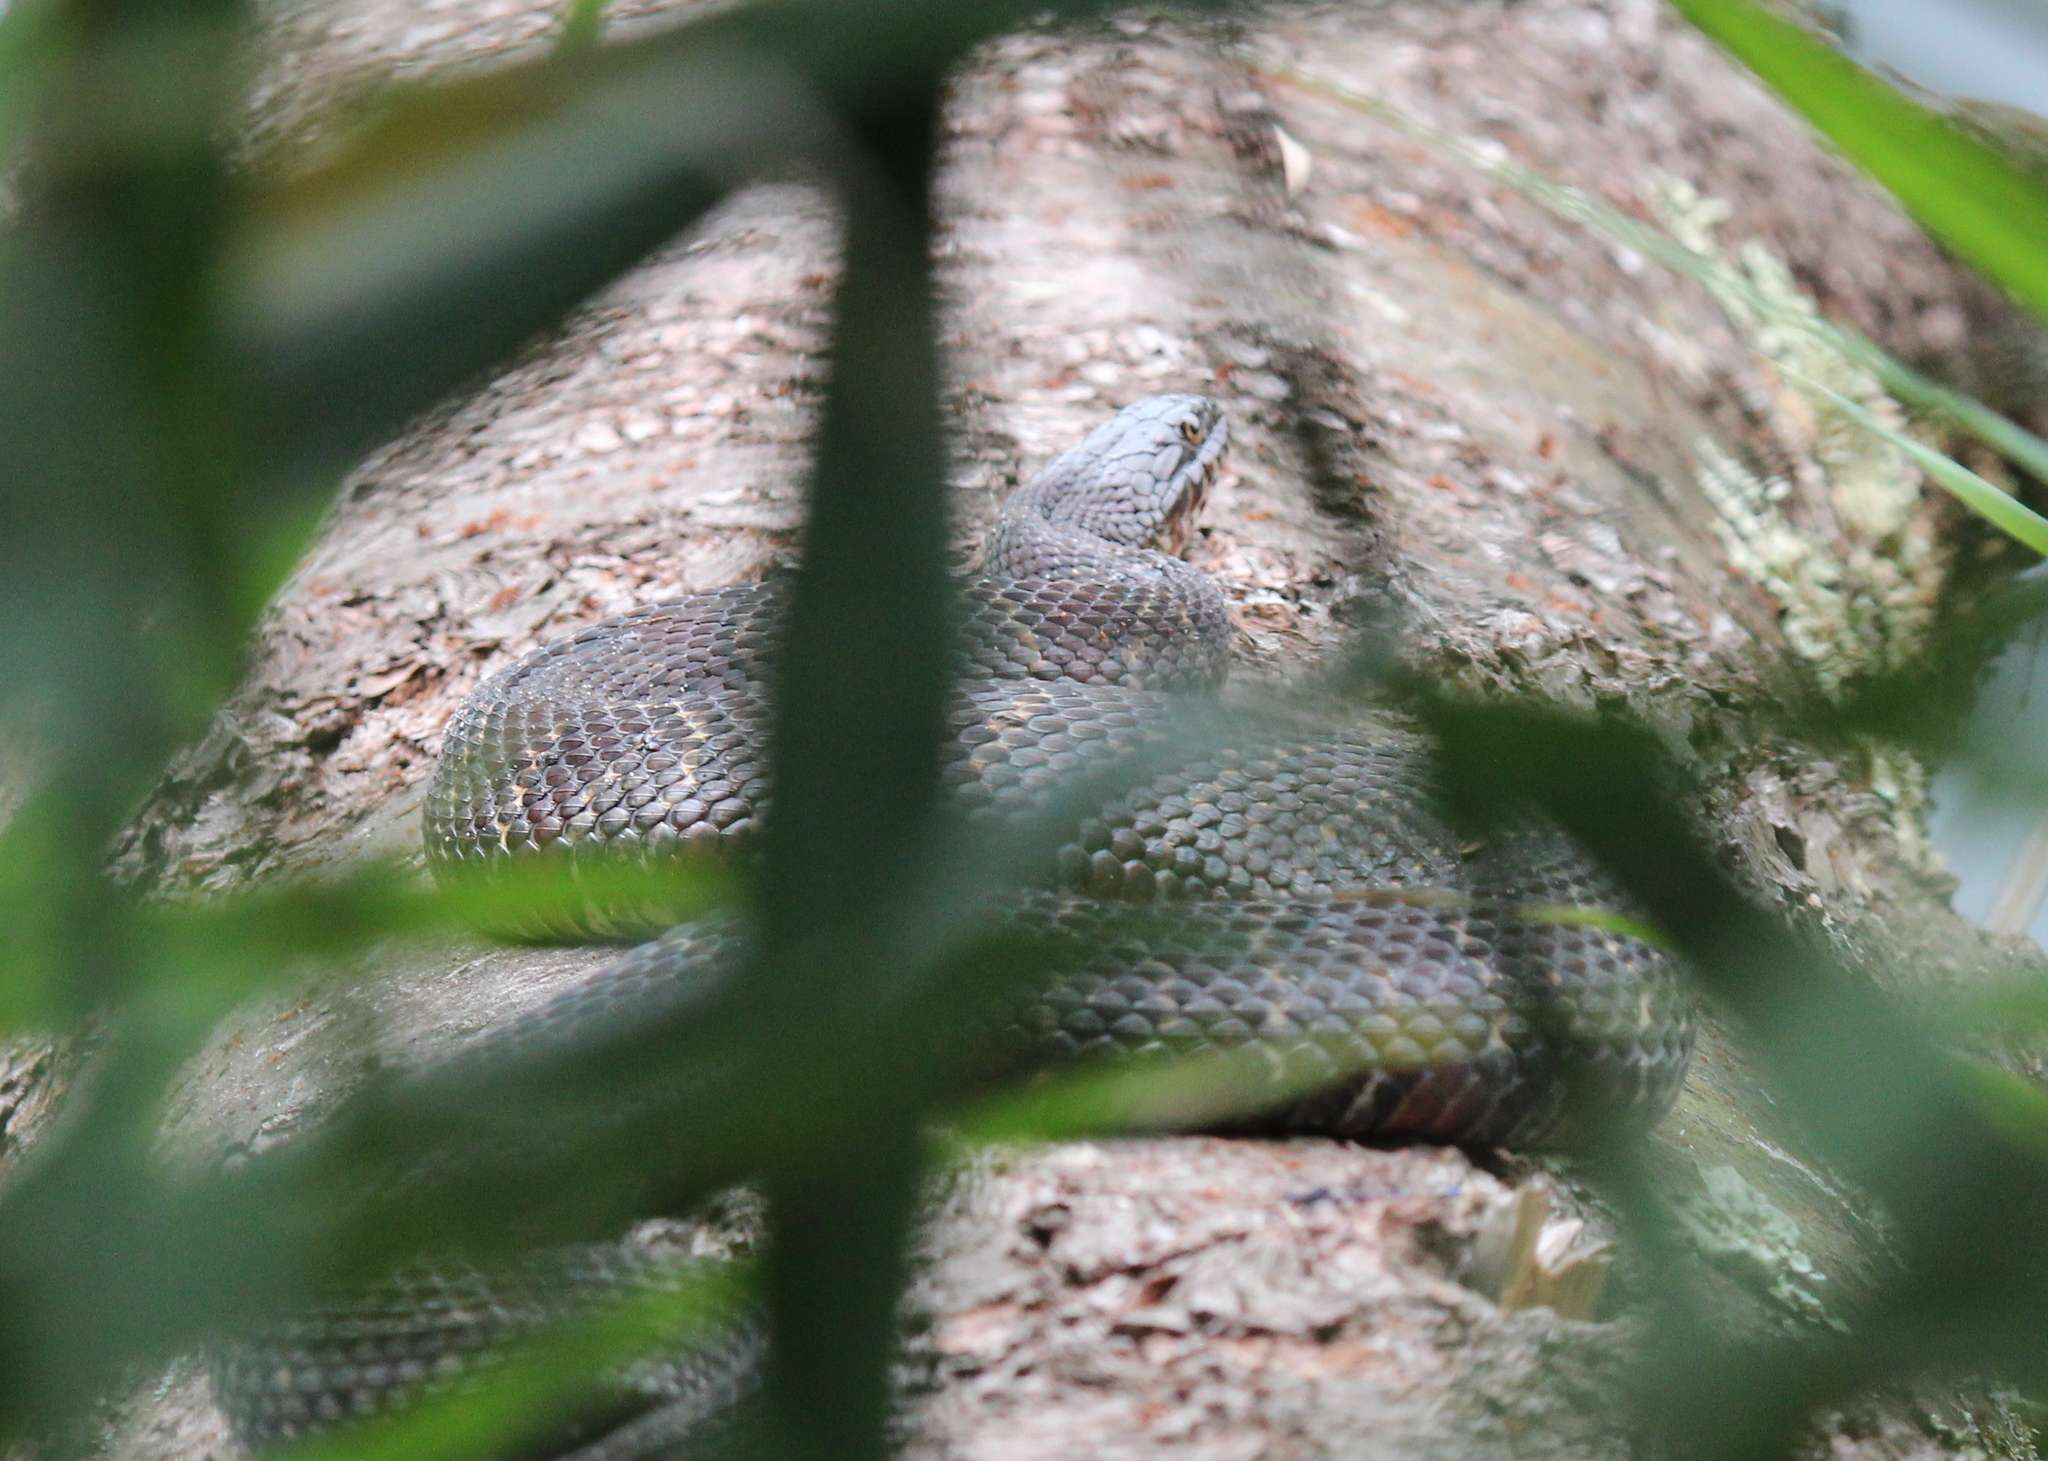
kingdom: Animalia
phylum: Chordata
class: Squamata
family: Colubridae
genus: Nerodia
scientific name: Nerodia sipedon
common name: Northern water snake
